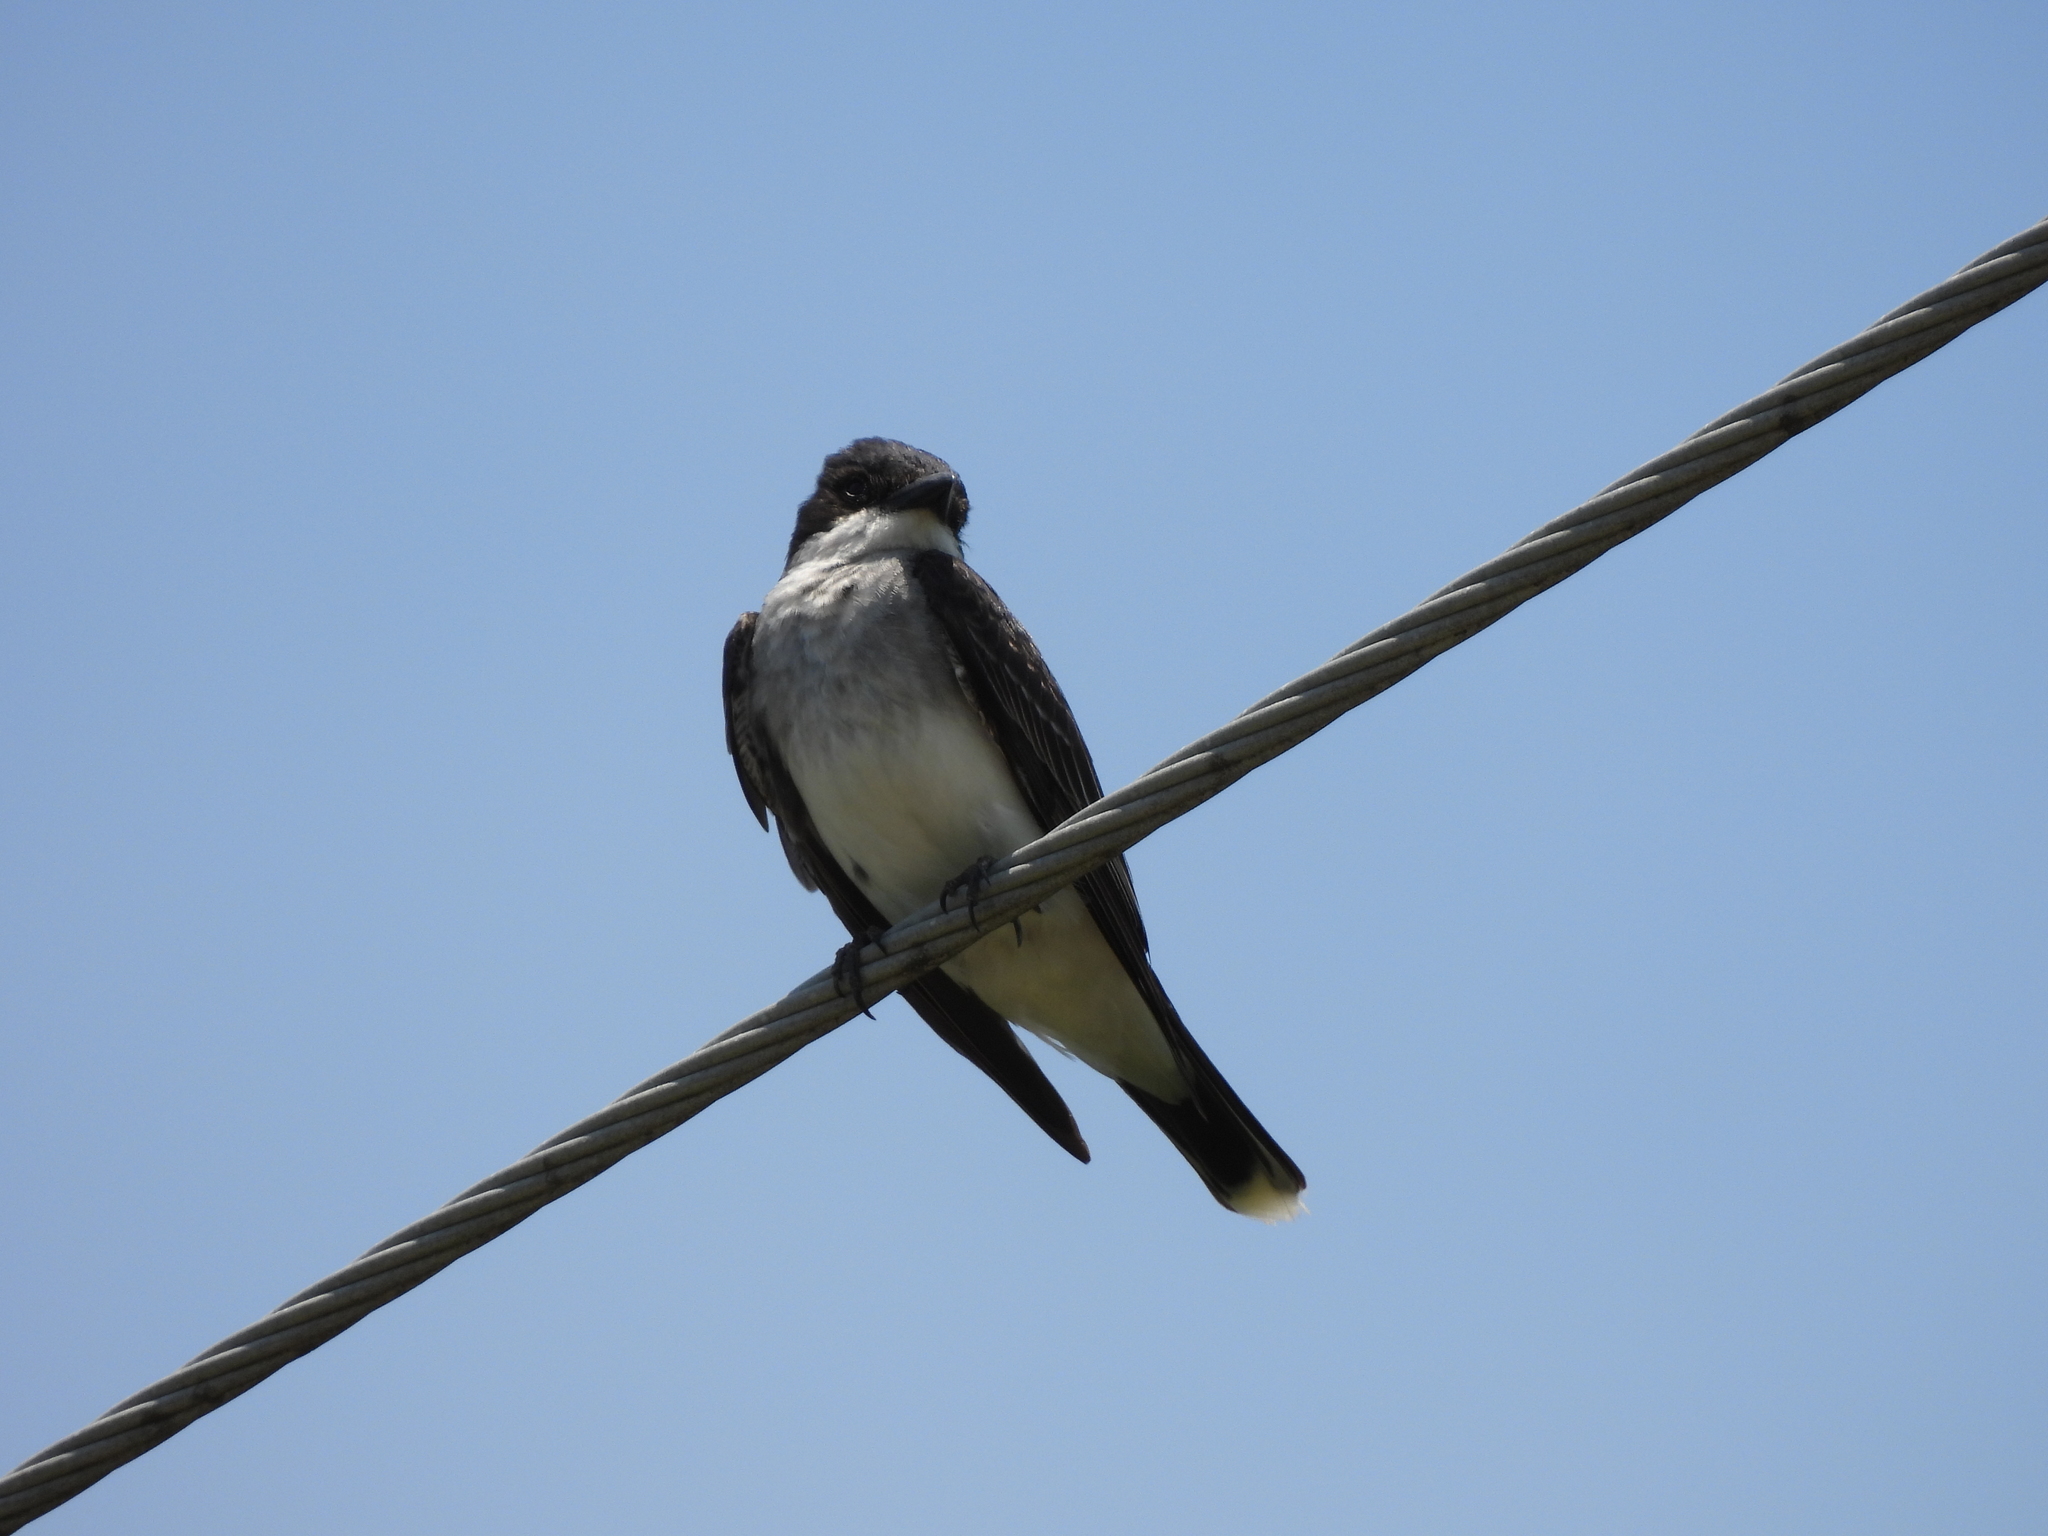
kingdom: Animalia
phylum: Chordata
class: Aves
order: Passeriformes
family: Tyrannidae
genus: Tyrannus
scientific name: Tyrannus tyrannus
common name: Eastern kingbird
